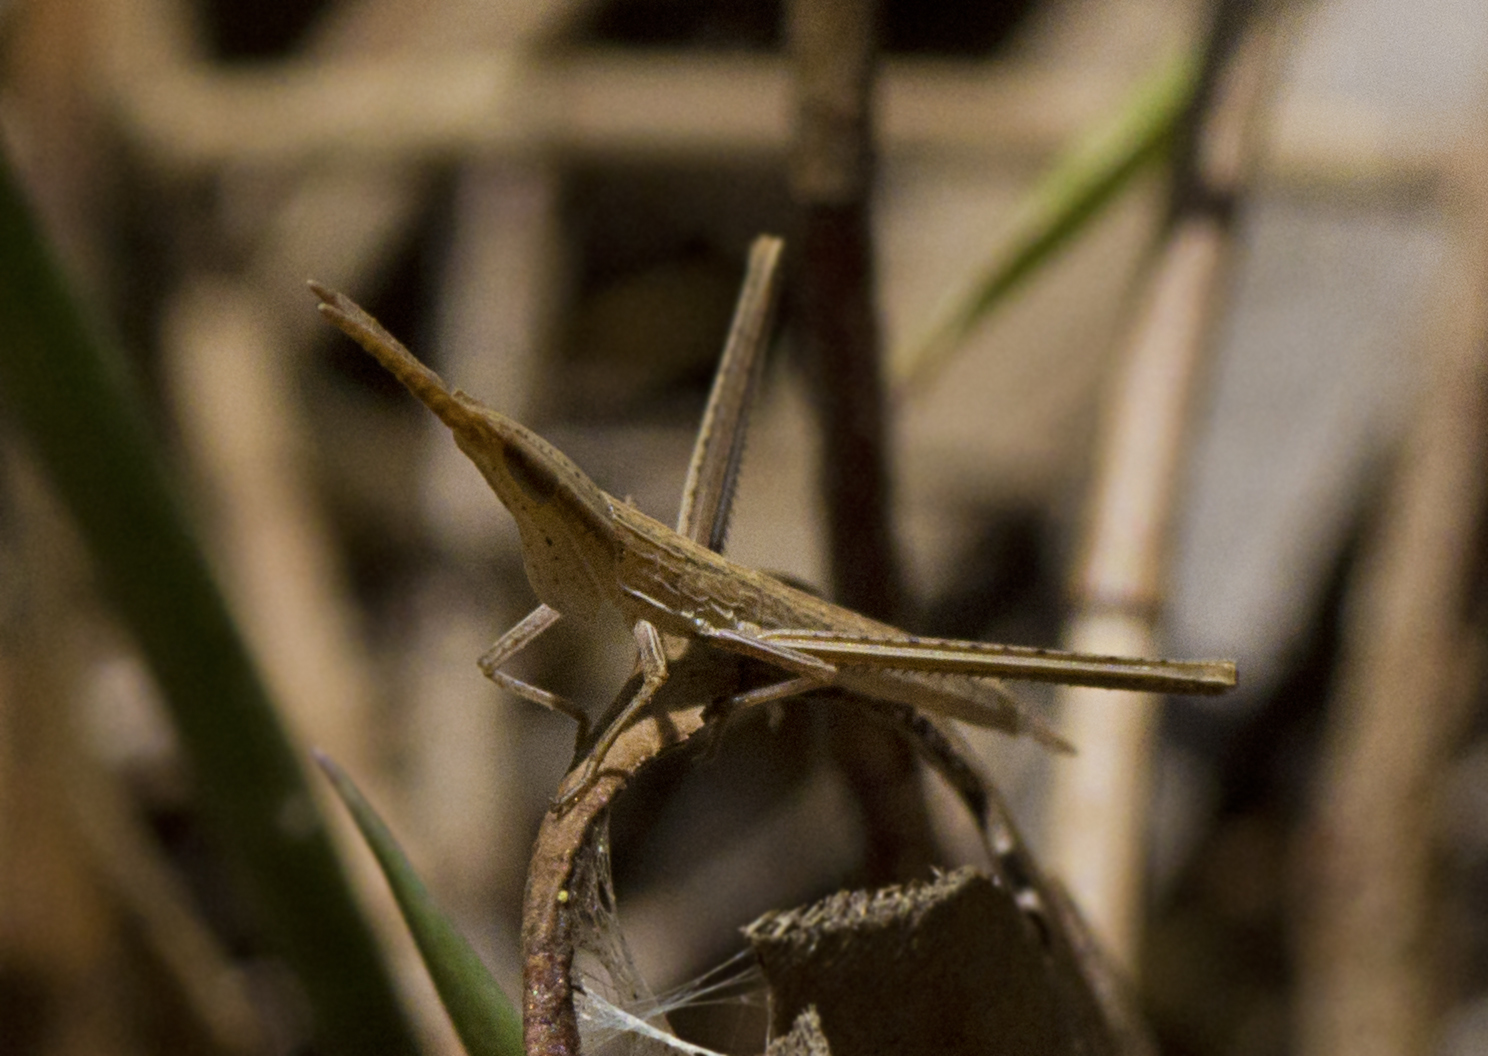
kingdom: Animalia
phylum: Arthropoda
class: Insecta
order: Orthoptera
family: Acrididae
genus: Acrida
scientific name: Acrida conica
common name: Giant green slantface
